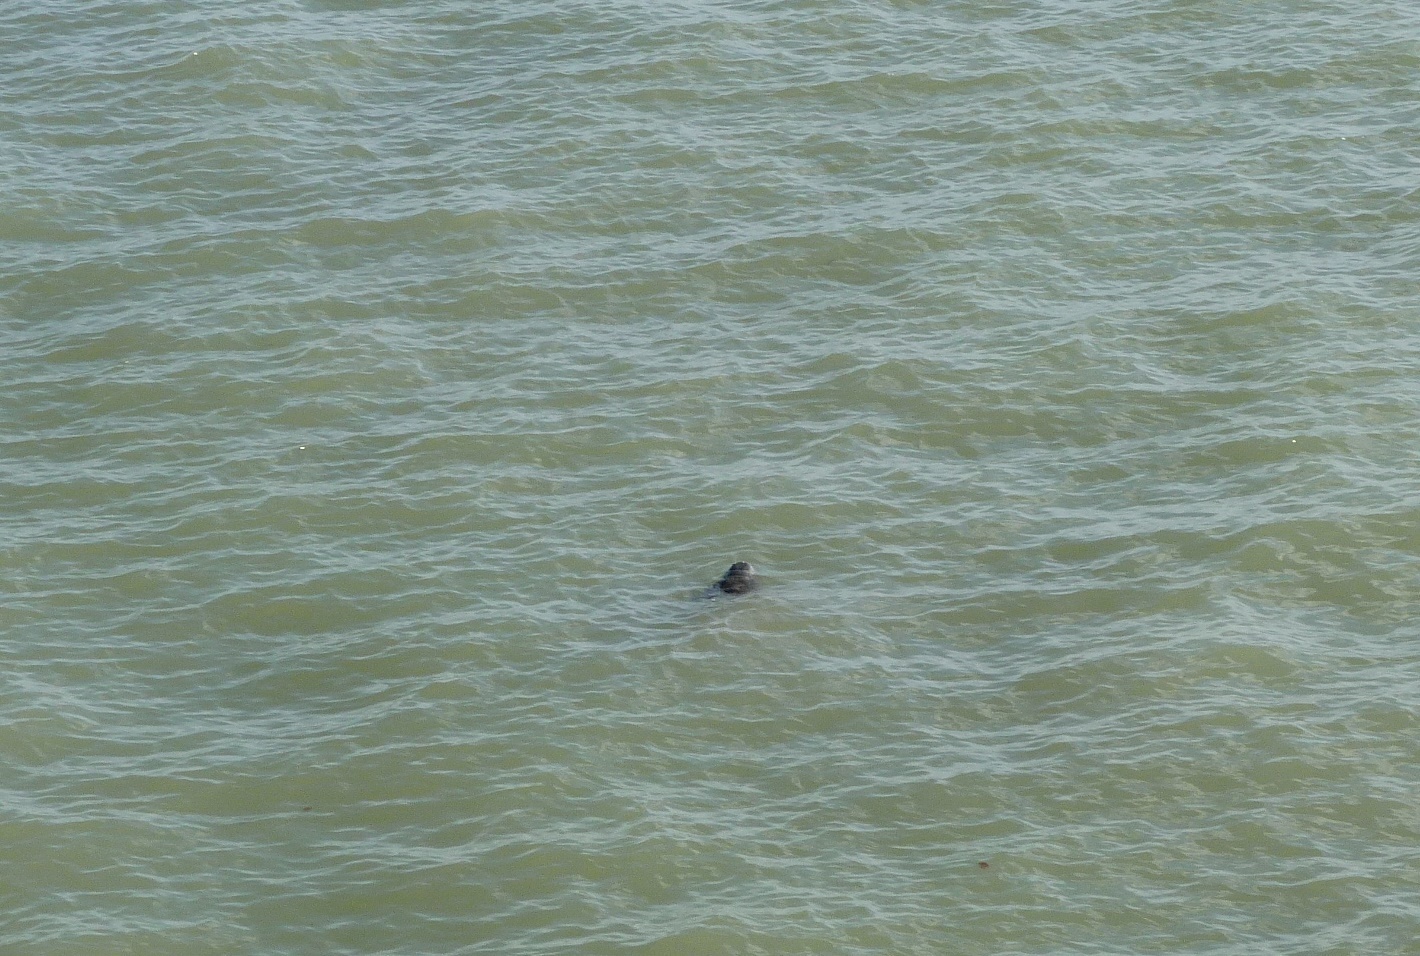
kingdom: Animalia
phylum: Chordata
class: Mammalia
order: Sirenia
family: Trichechidae
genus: Trichechus
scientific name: Trichechus manatus
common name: West indian manatee
